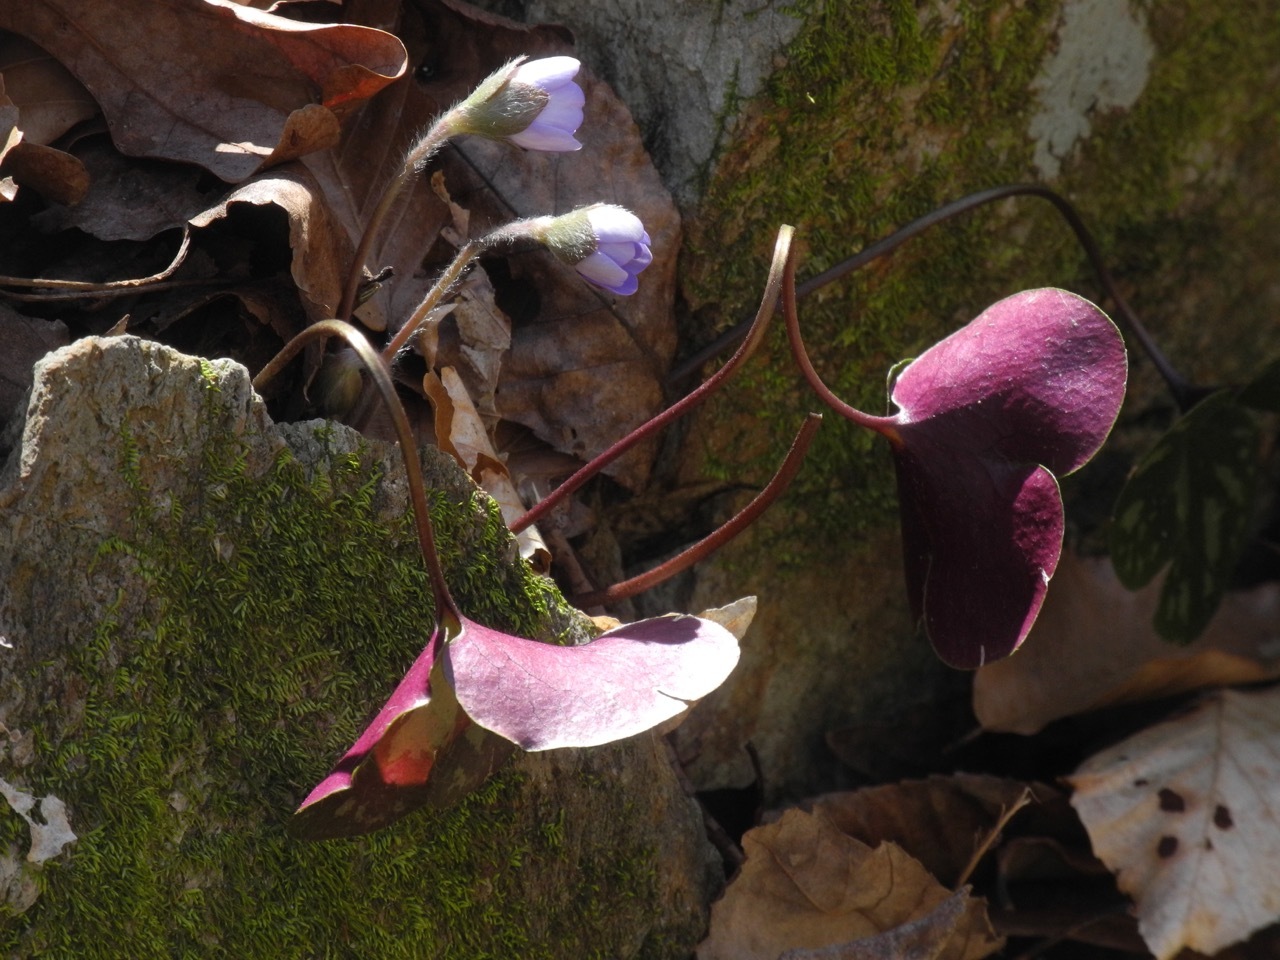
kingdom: Plantae
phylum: Tracheophyta
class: Magnoliopsida
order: Ranunculales
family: Ranunculaceae
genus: Hepatica
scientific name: Hepatica americana
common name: American hepatica
